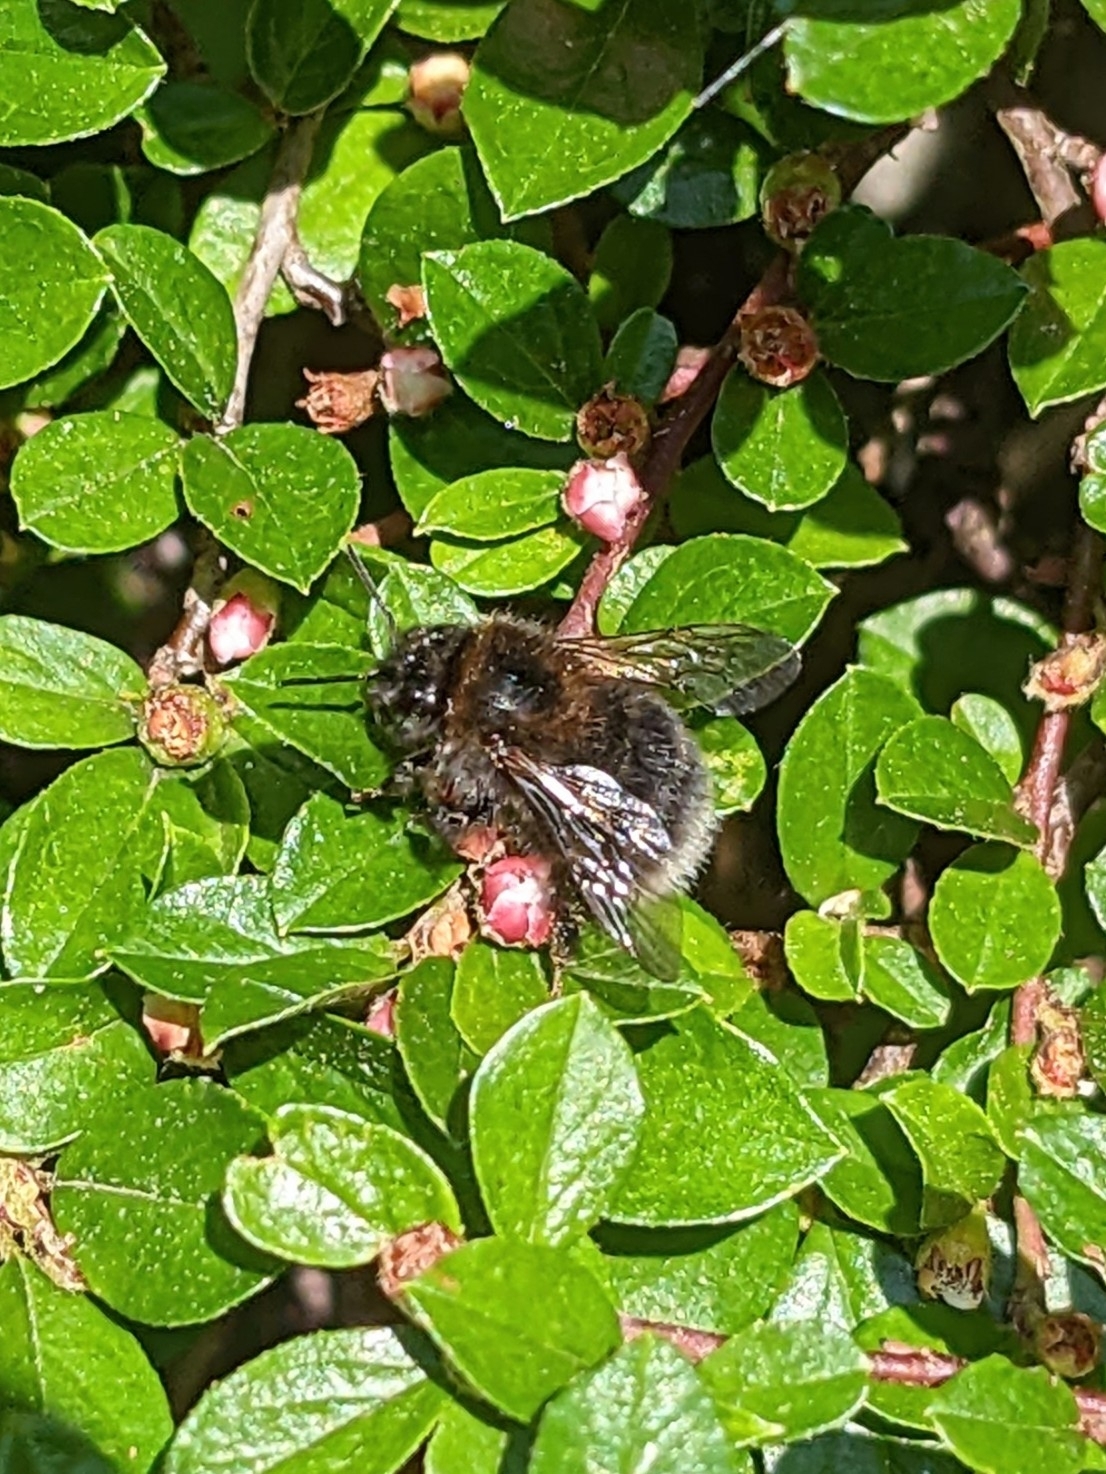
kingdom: Animalia
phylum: Arthropoda
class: Insecta
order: Hymenoptera
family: Apidae
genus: Bombus
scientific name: Bombus hypnorum
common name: New garden bumblebee
